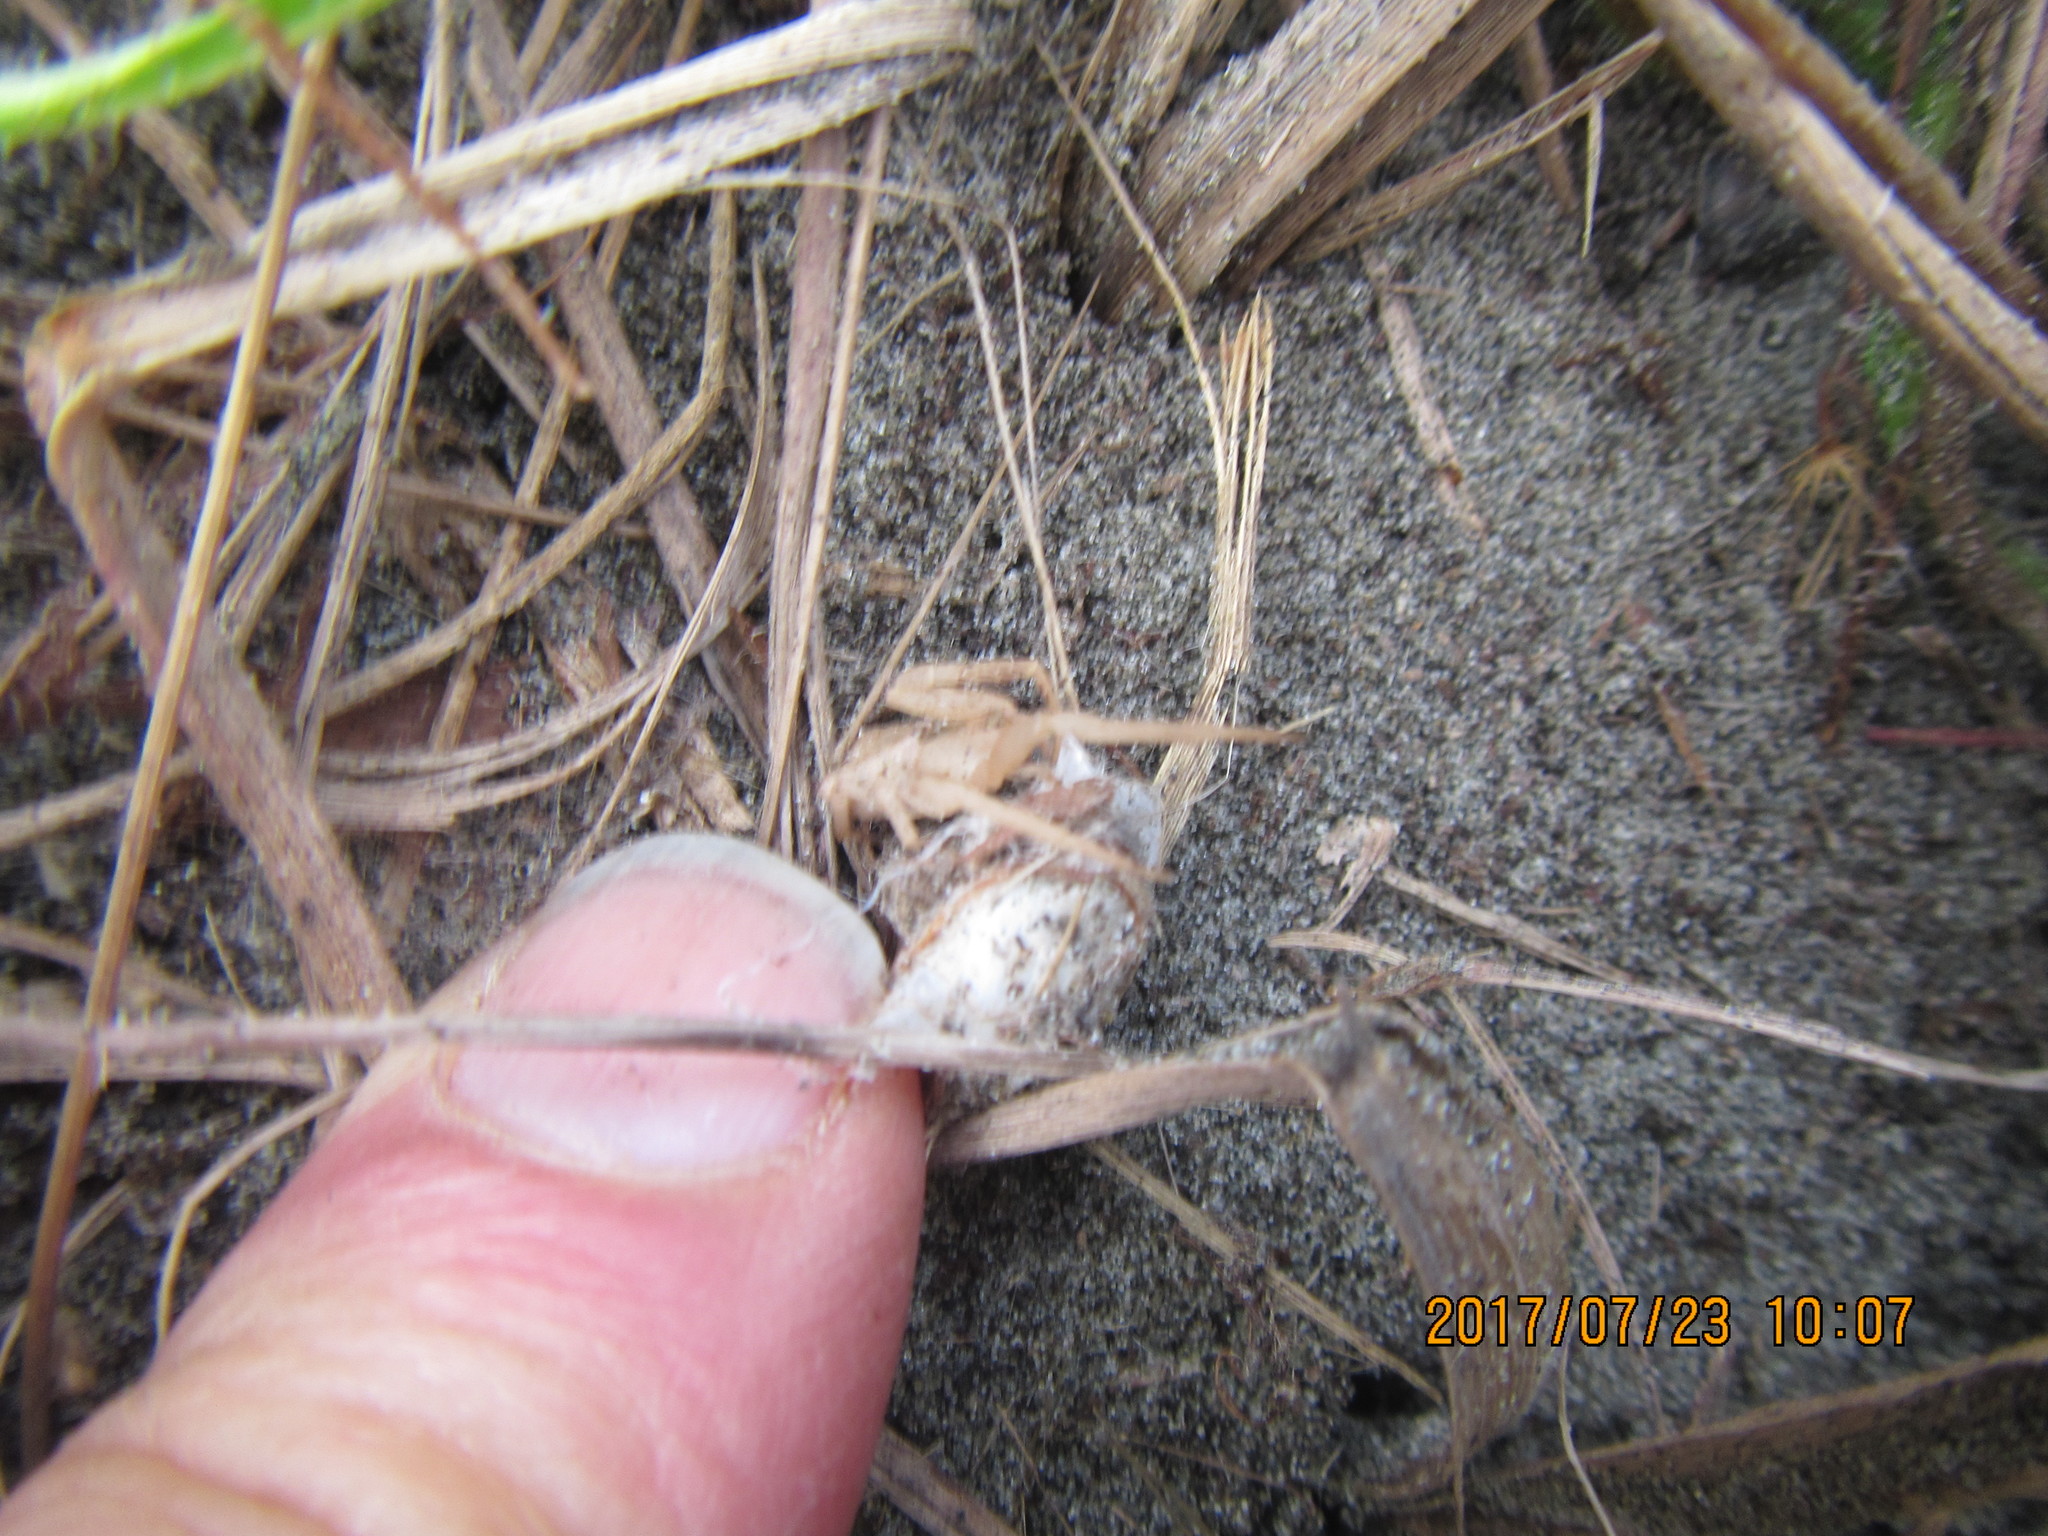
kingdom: Animalia
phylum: Arthropoda
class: Arachnida
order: Araneae
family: Thomisidae
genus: Sidymella
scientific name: Sidymella trapezia
